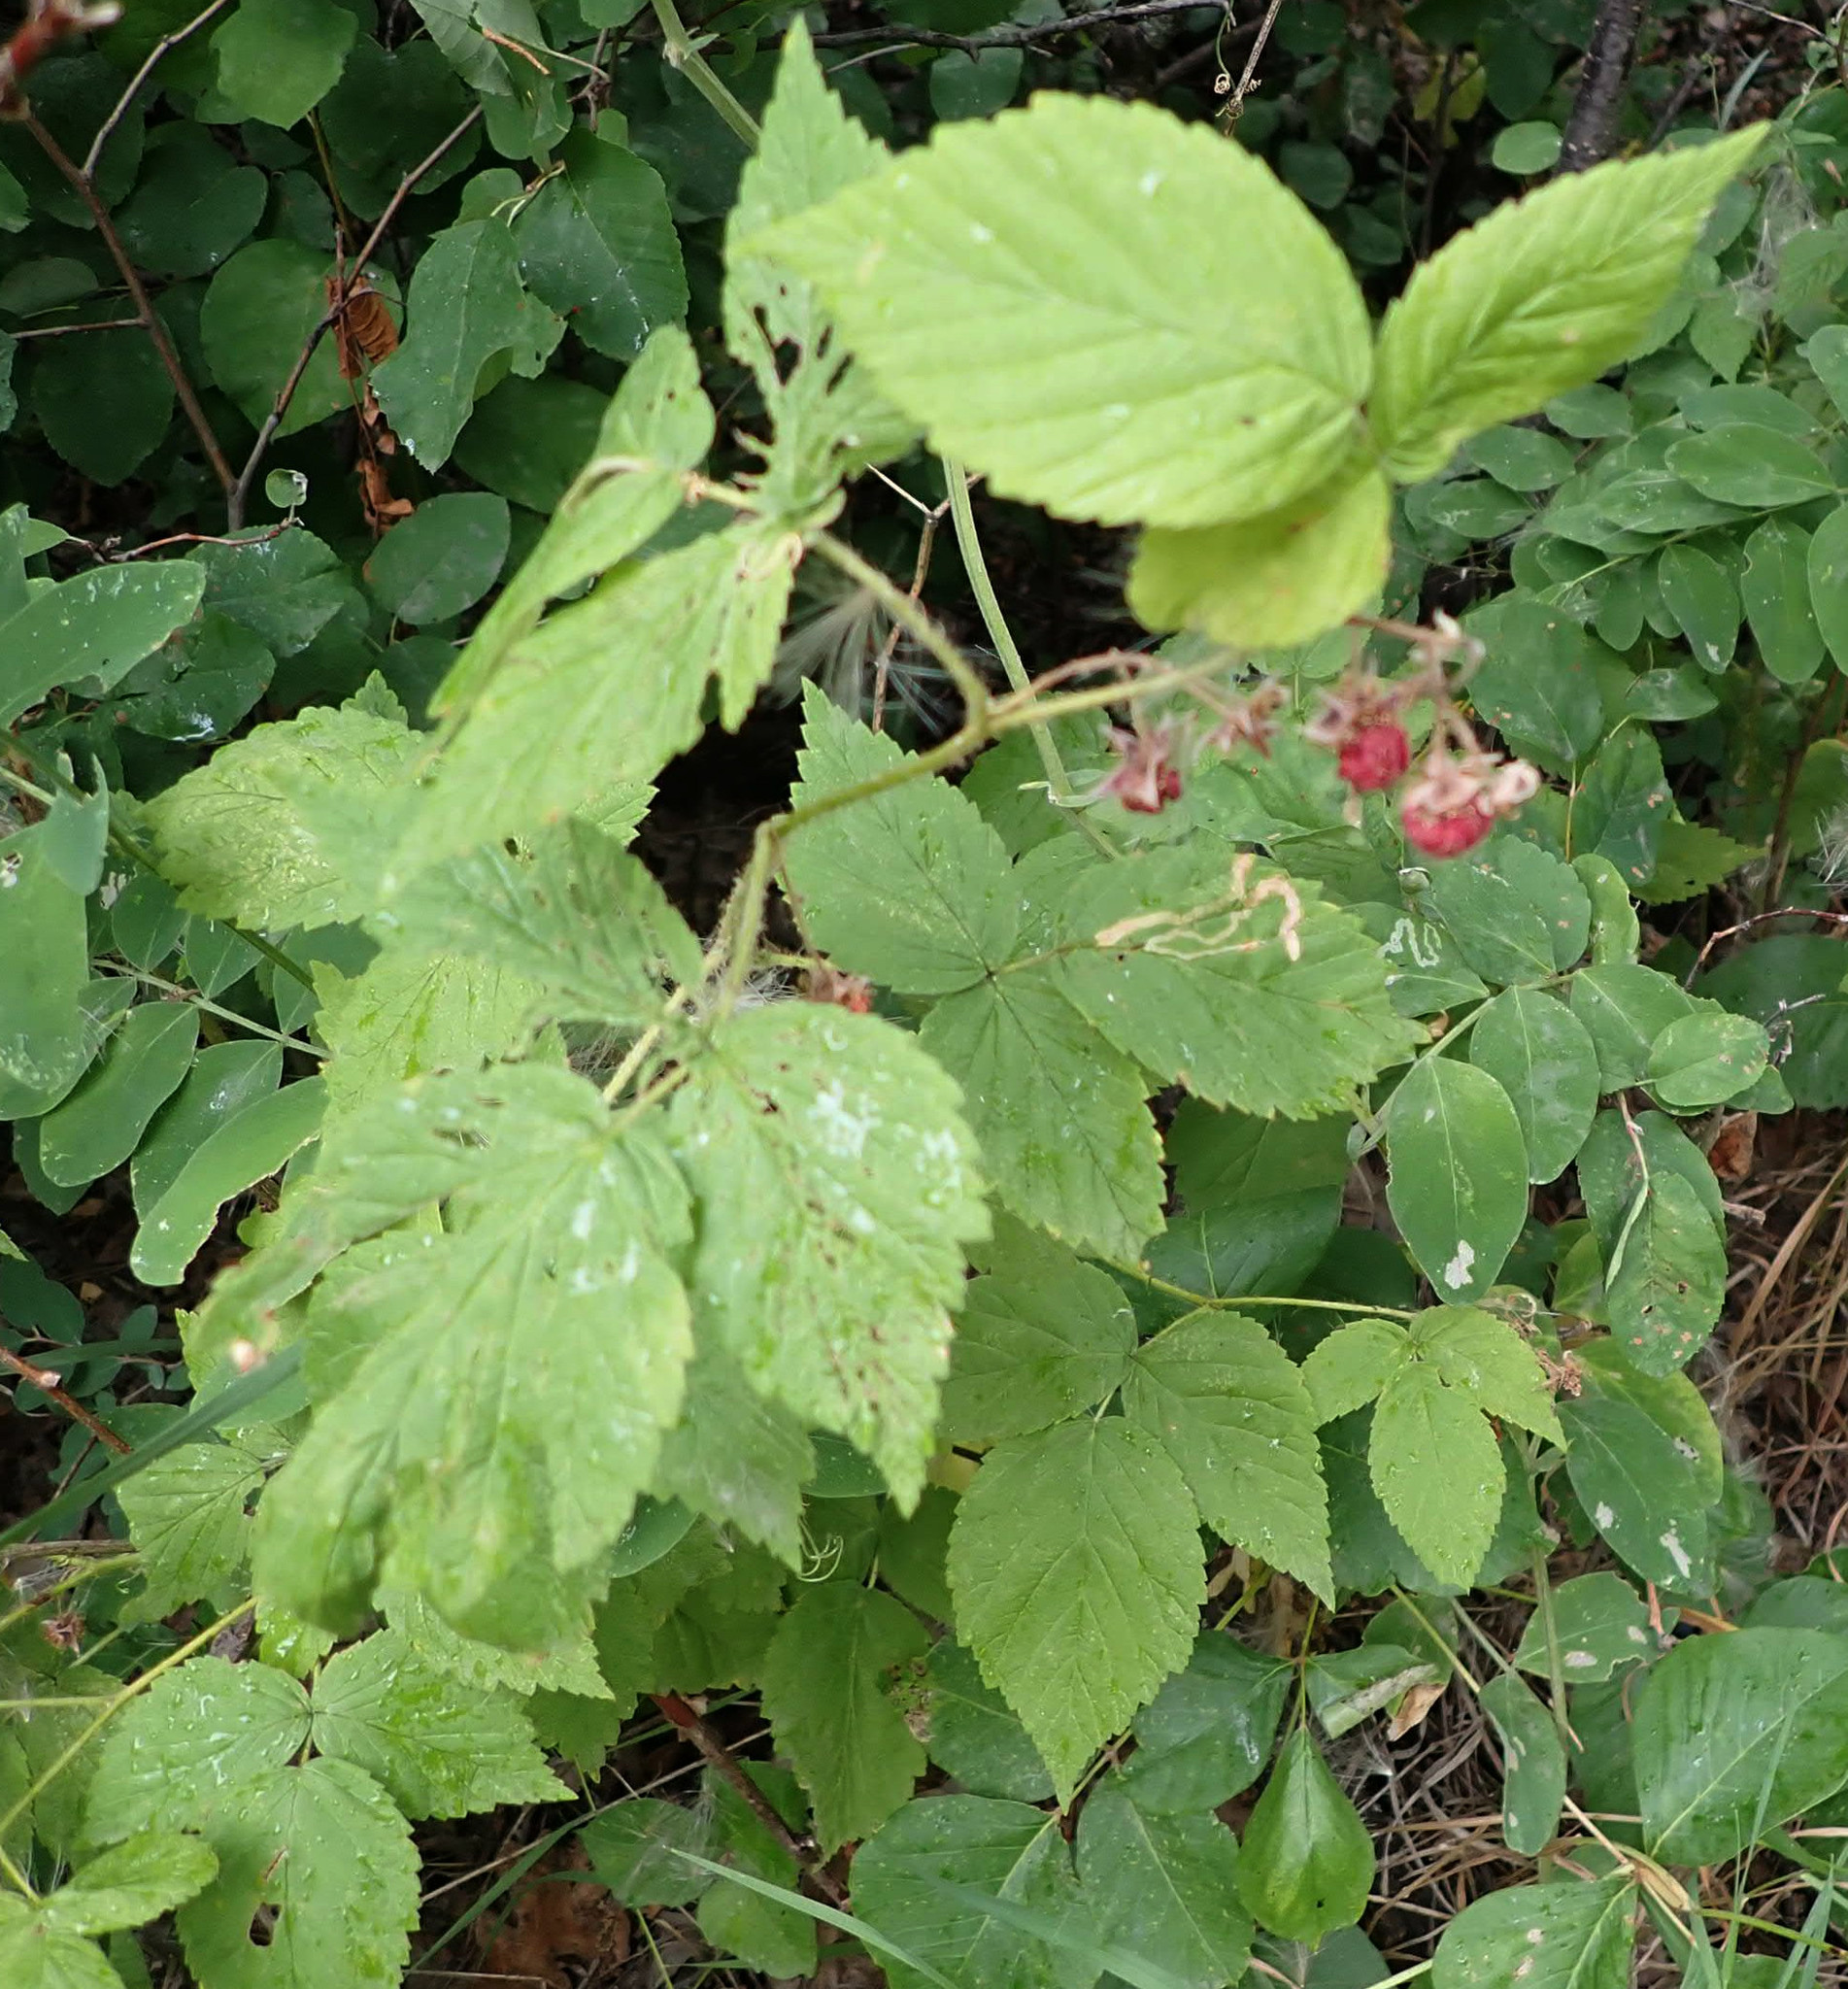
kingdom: Plantae
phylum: Tracheophyta
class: Magnoliopsida
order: Rosales
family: Rosaceae
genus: Rubus
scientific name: Rubus idaeus
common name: Raspberry
